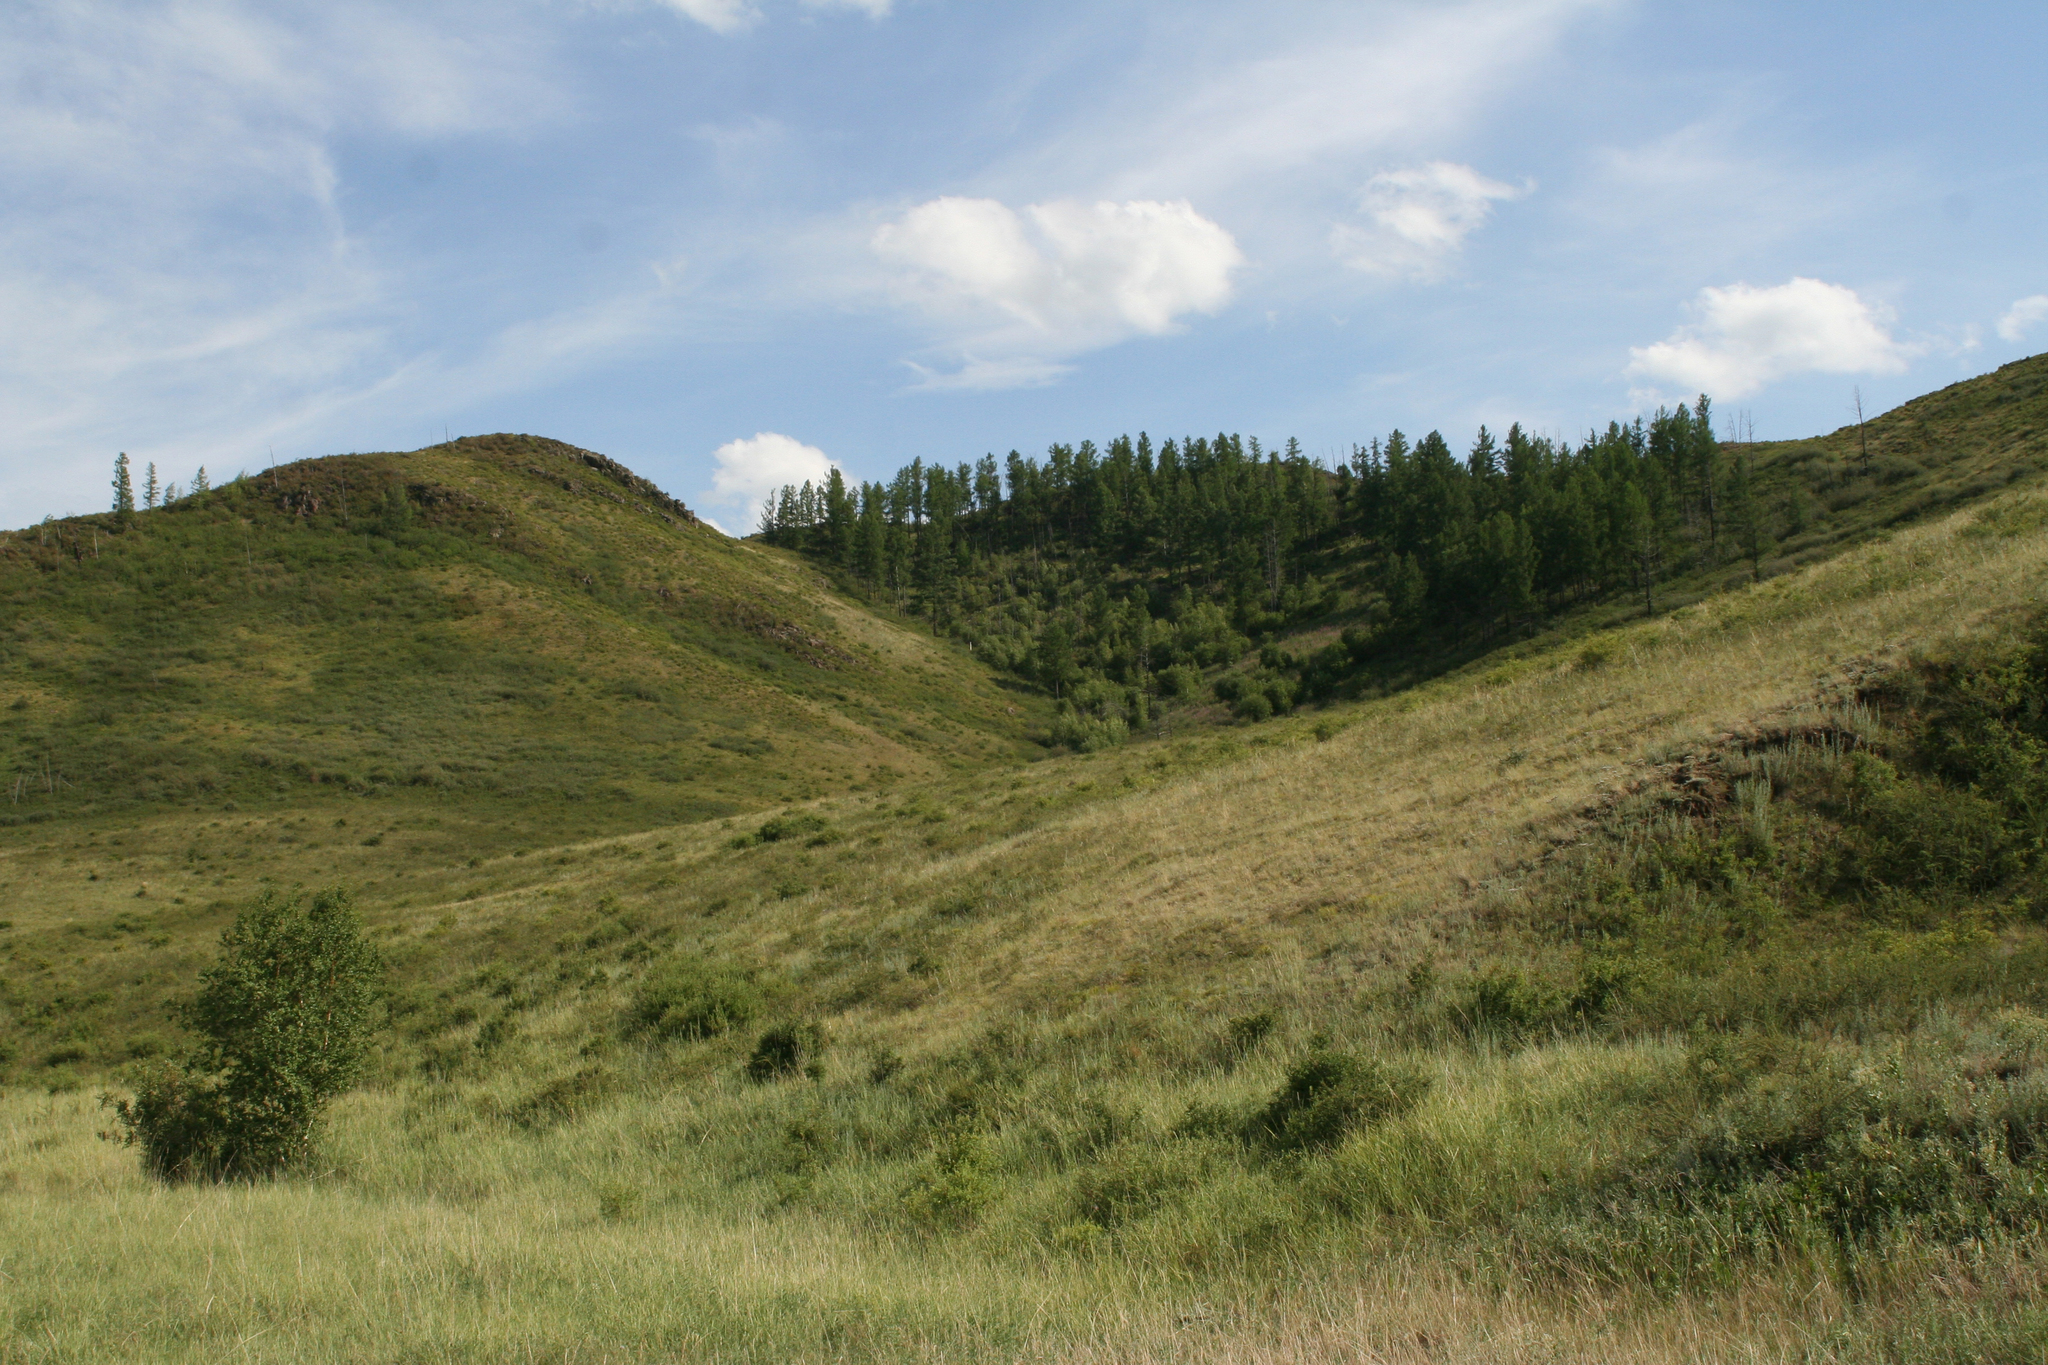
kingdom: Plantae
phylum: Tracheophyta
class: Pinopsida
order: Pinales
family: Pinaceae
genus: Larix
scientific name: Larix sibirica
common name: Siberian larch
